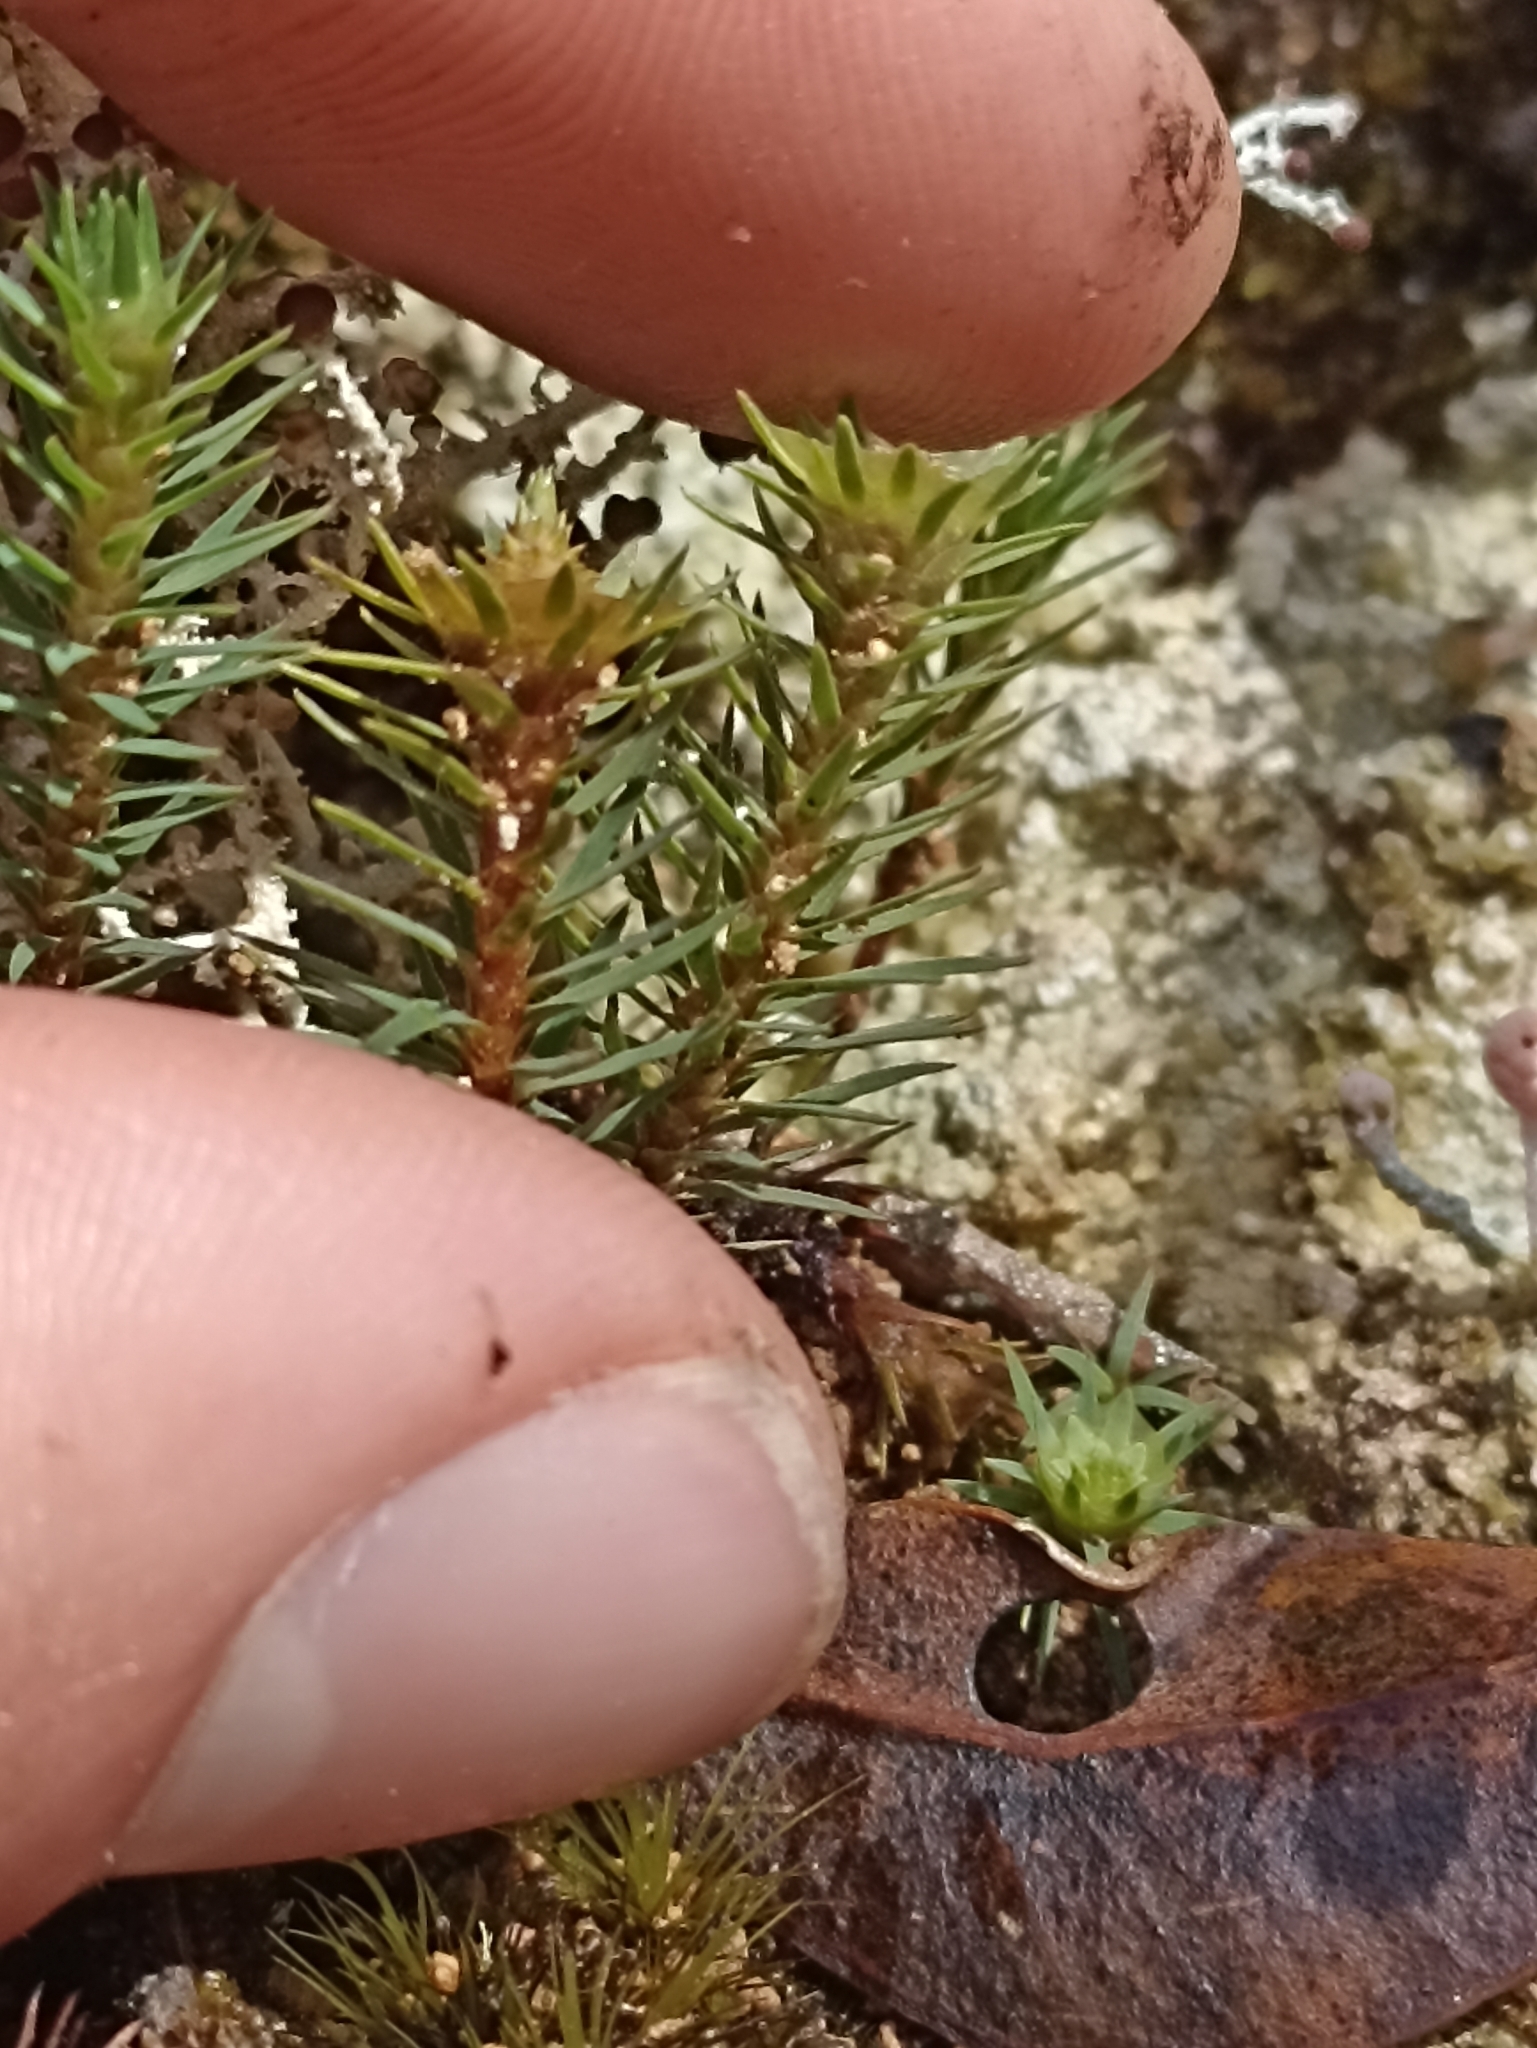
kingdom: Plantae
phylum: Bryophyta
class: Polytrichopsida
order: Polytrichales
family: Polytrichaceae
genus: Dawsonia
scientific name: Dawsonia superba
